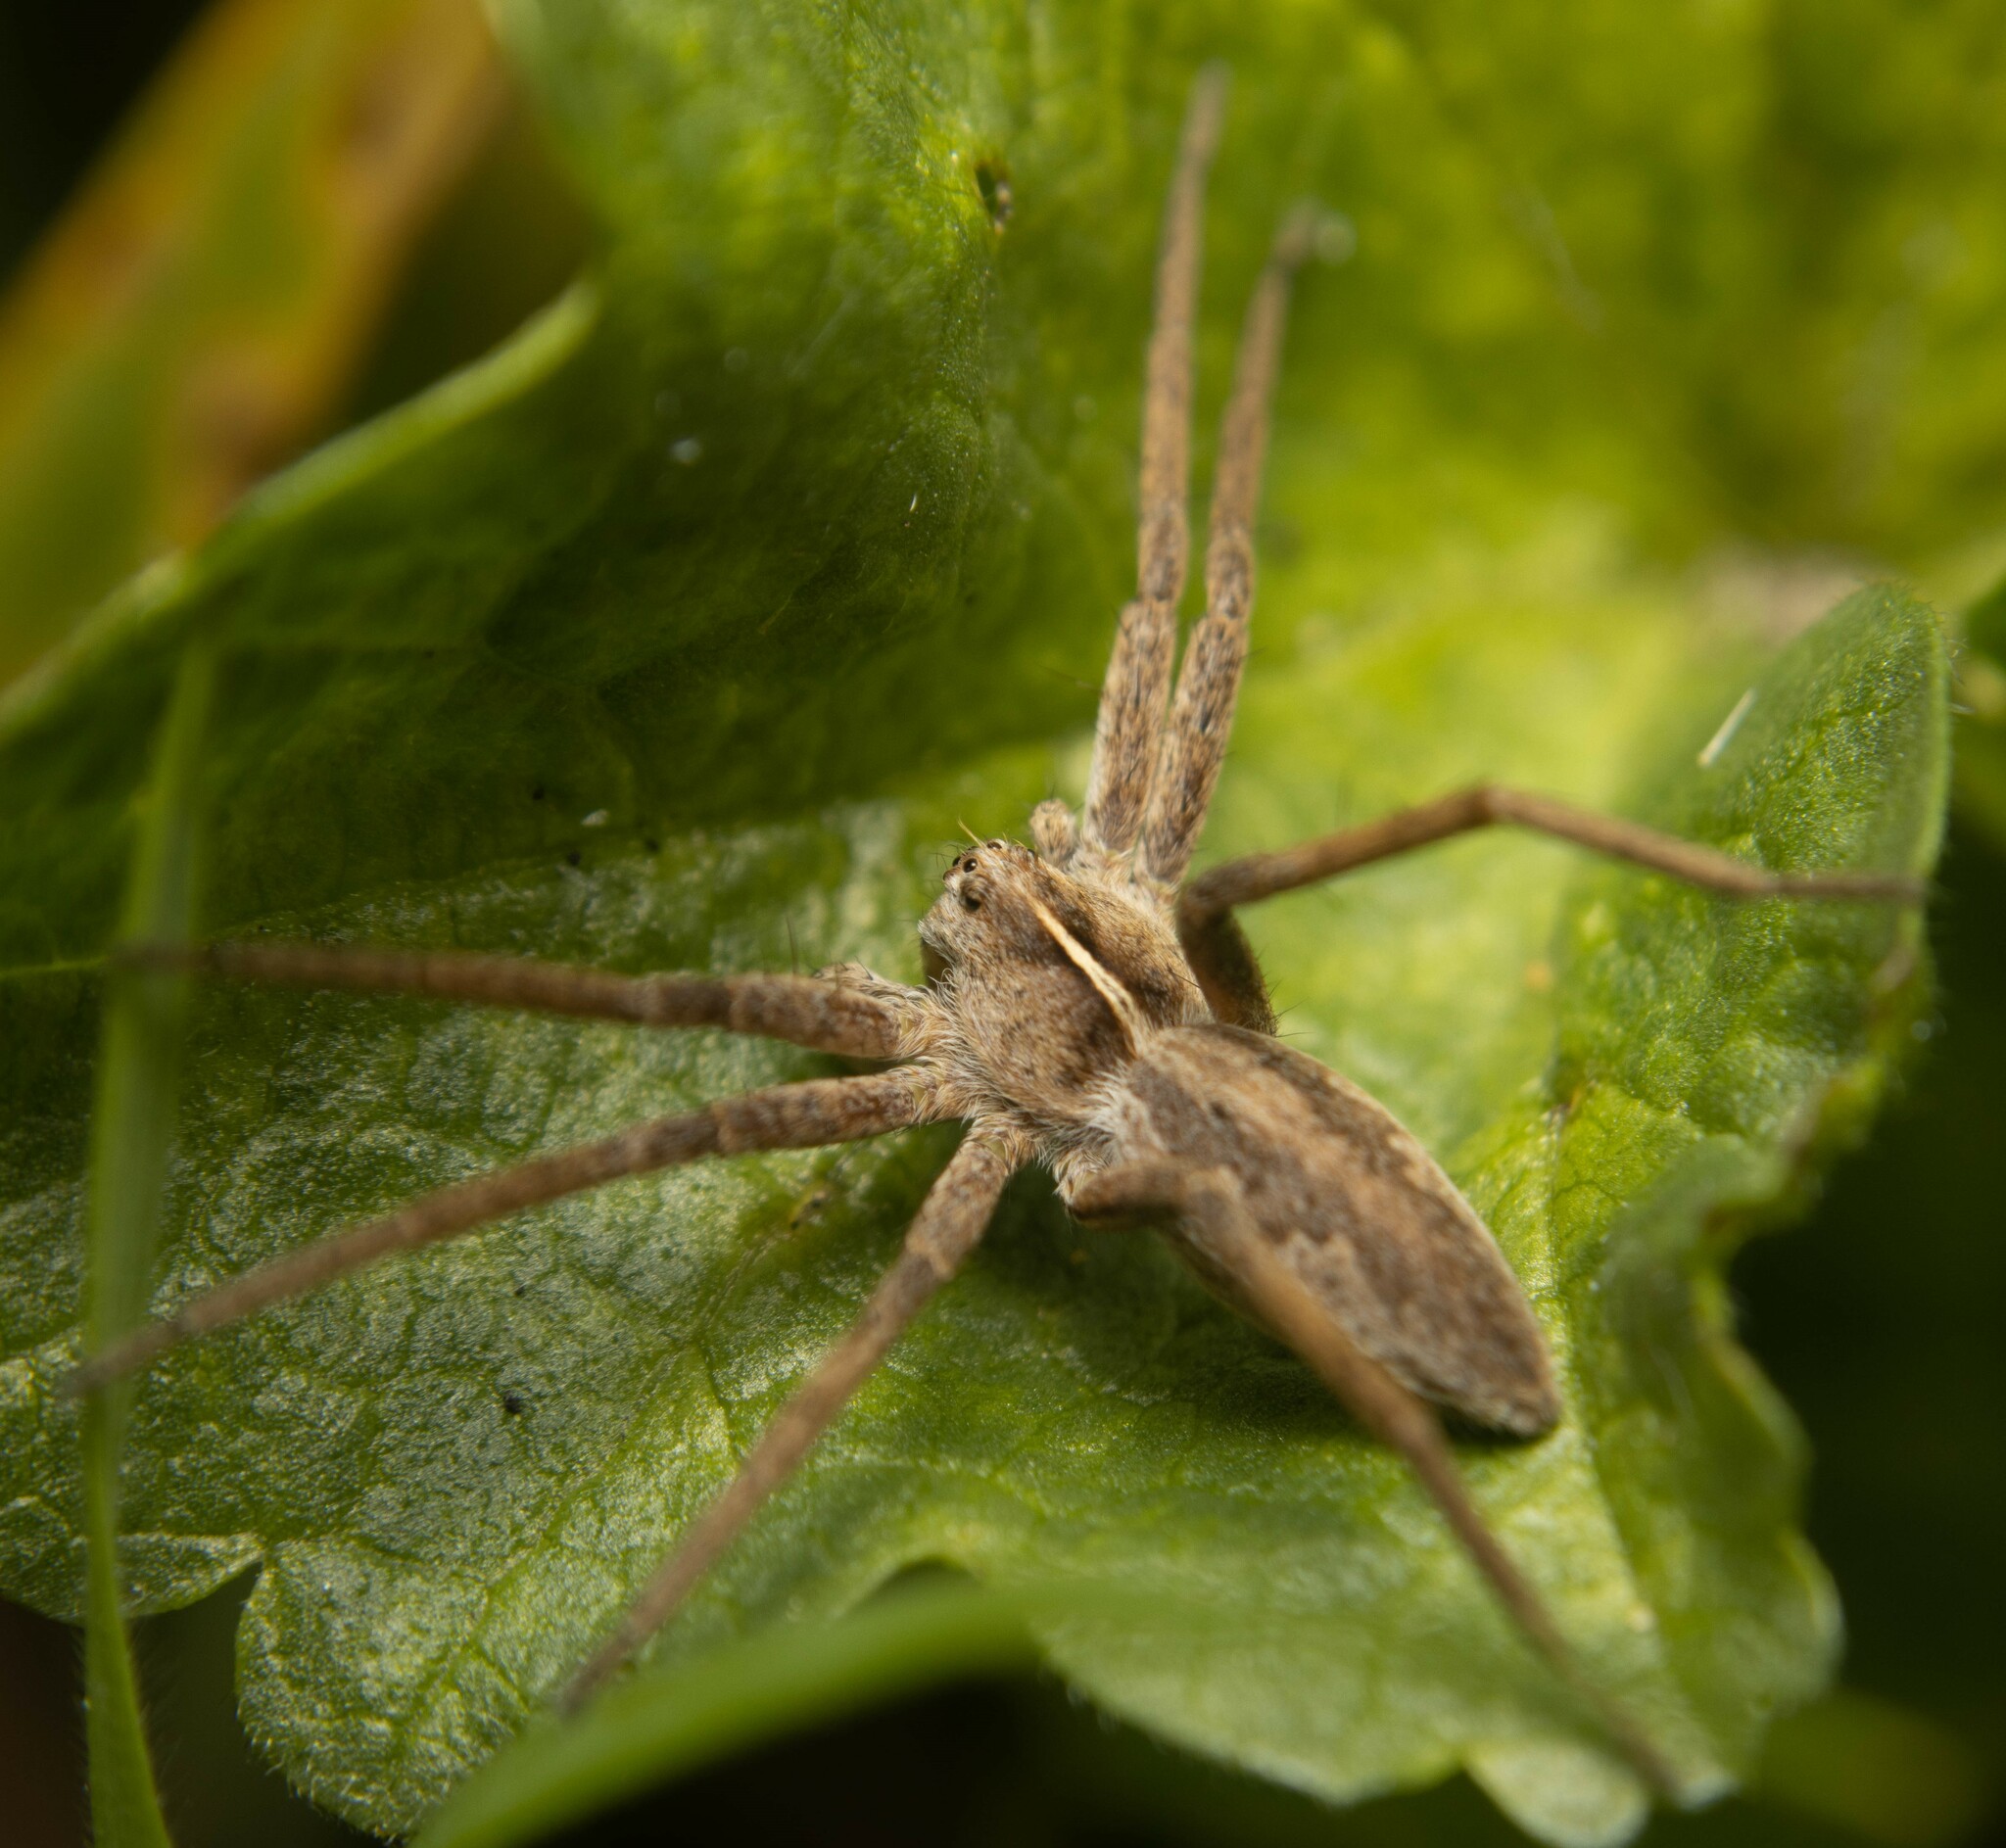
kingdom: Animalia
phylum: Arthropoda
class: Arachnida
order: Araneae
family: Pisauridae
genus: Pisaura
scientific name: Pisaura mirabilis
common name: Tent spider
